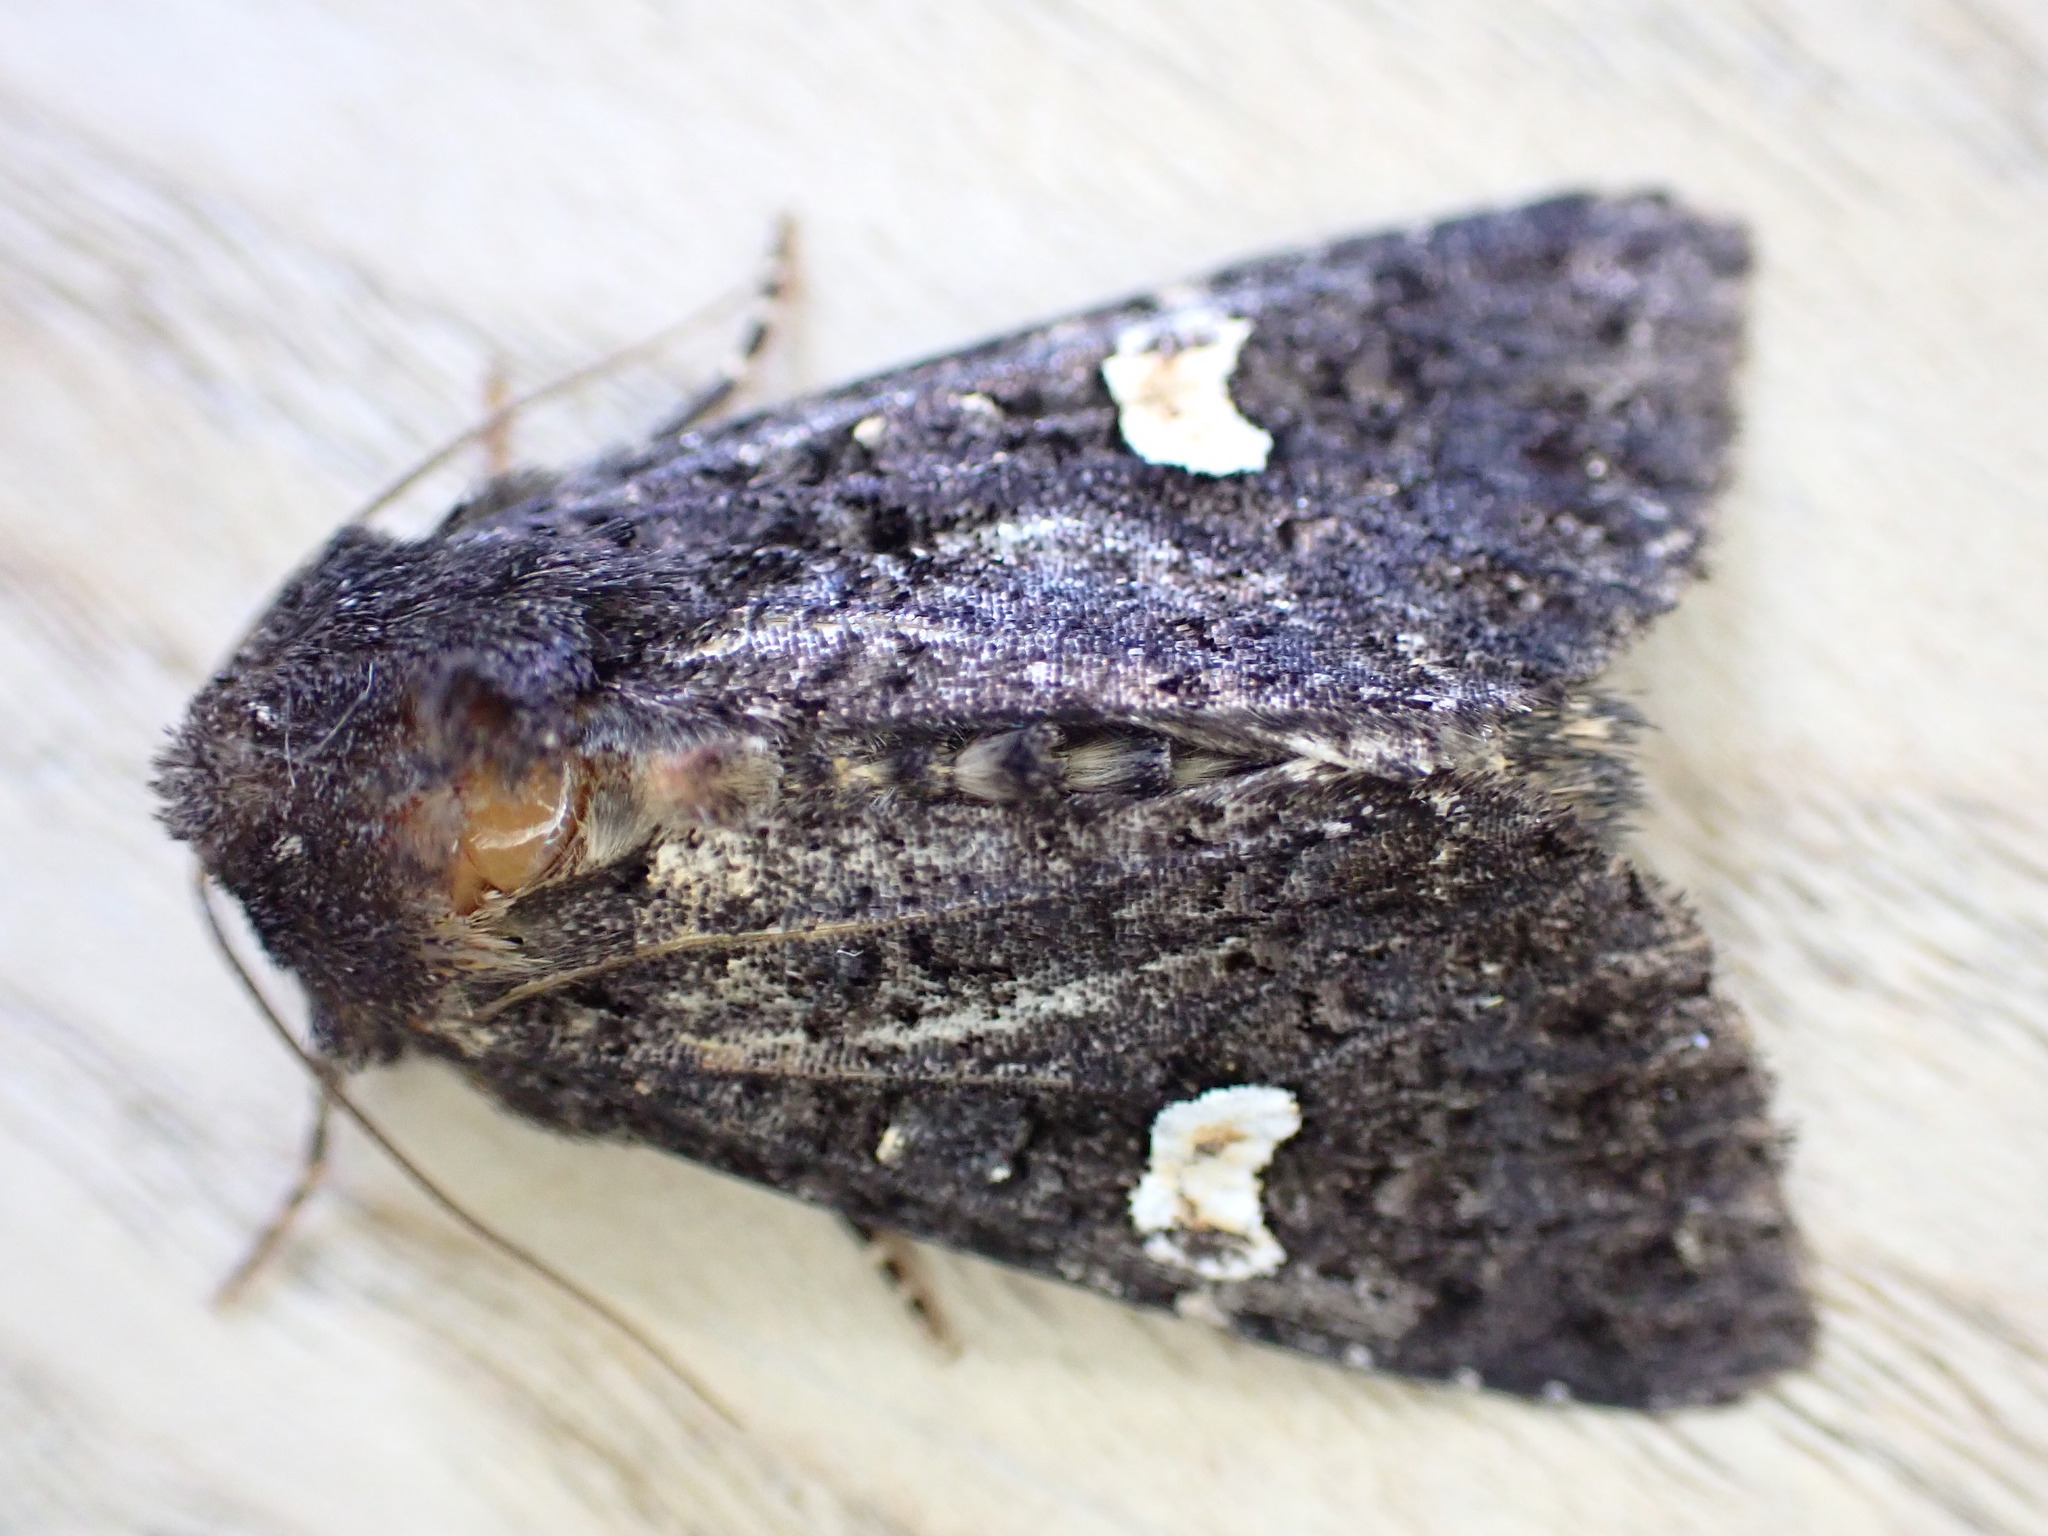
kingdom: Animalia
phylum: Arthropoda
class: Insecta
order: Lepidoptera
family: Noctuidae
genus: Melanchra
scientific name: Melanchra persicariae
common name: Dot moth
